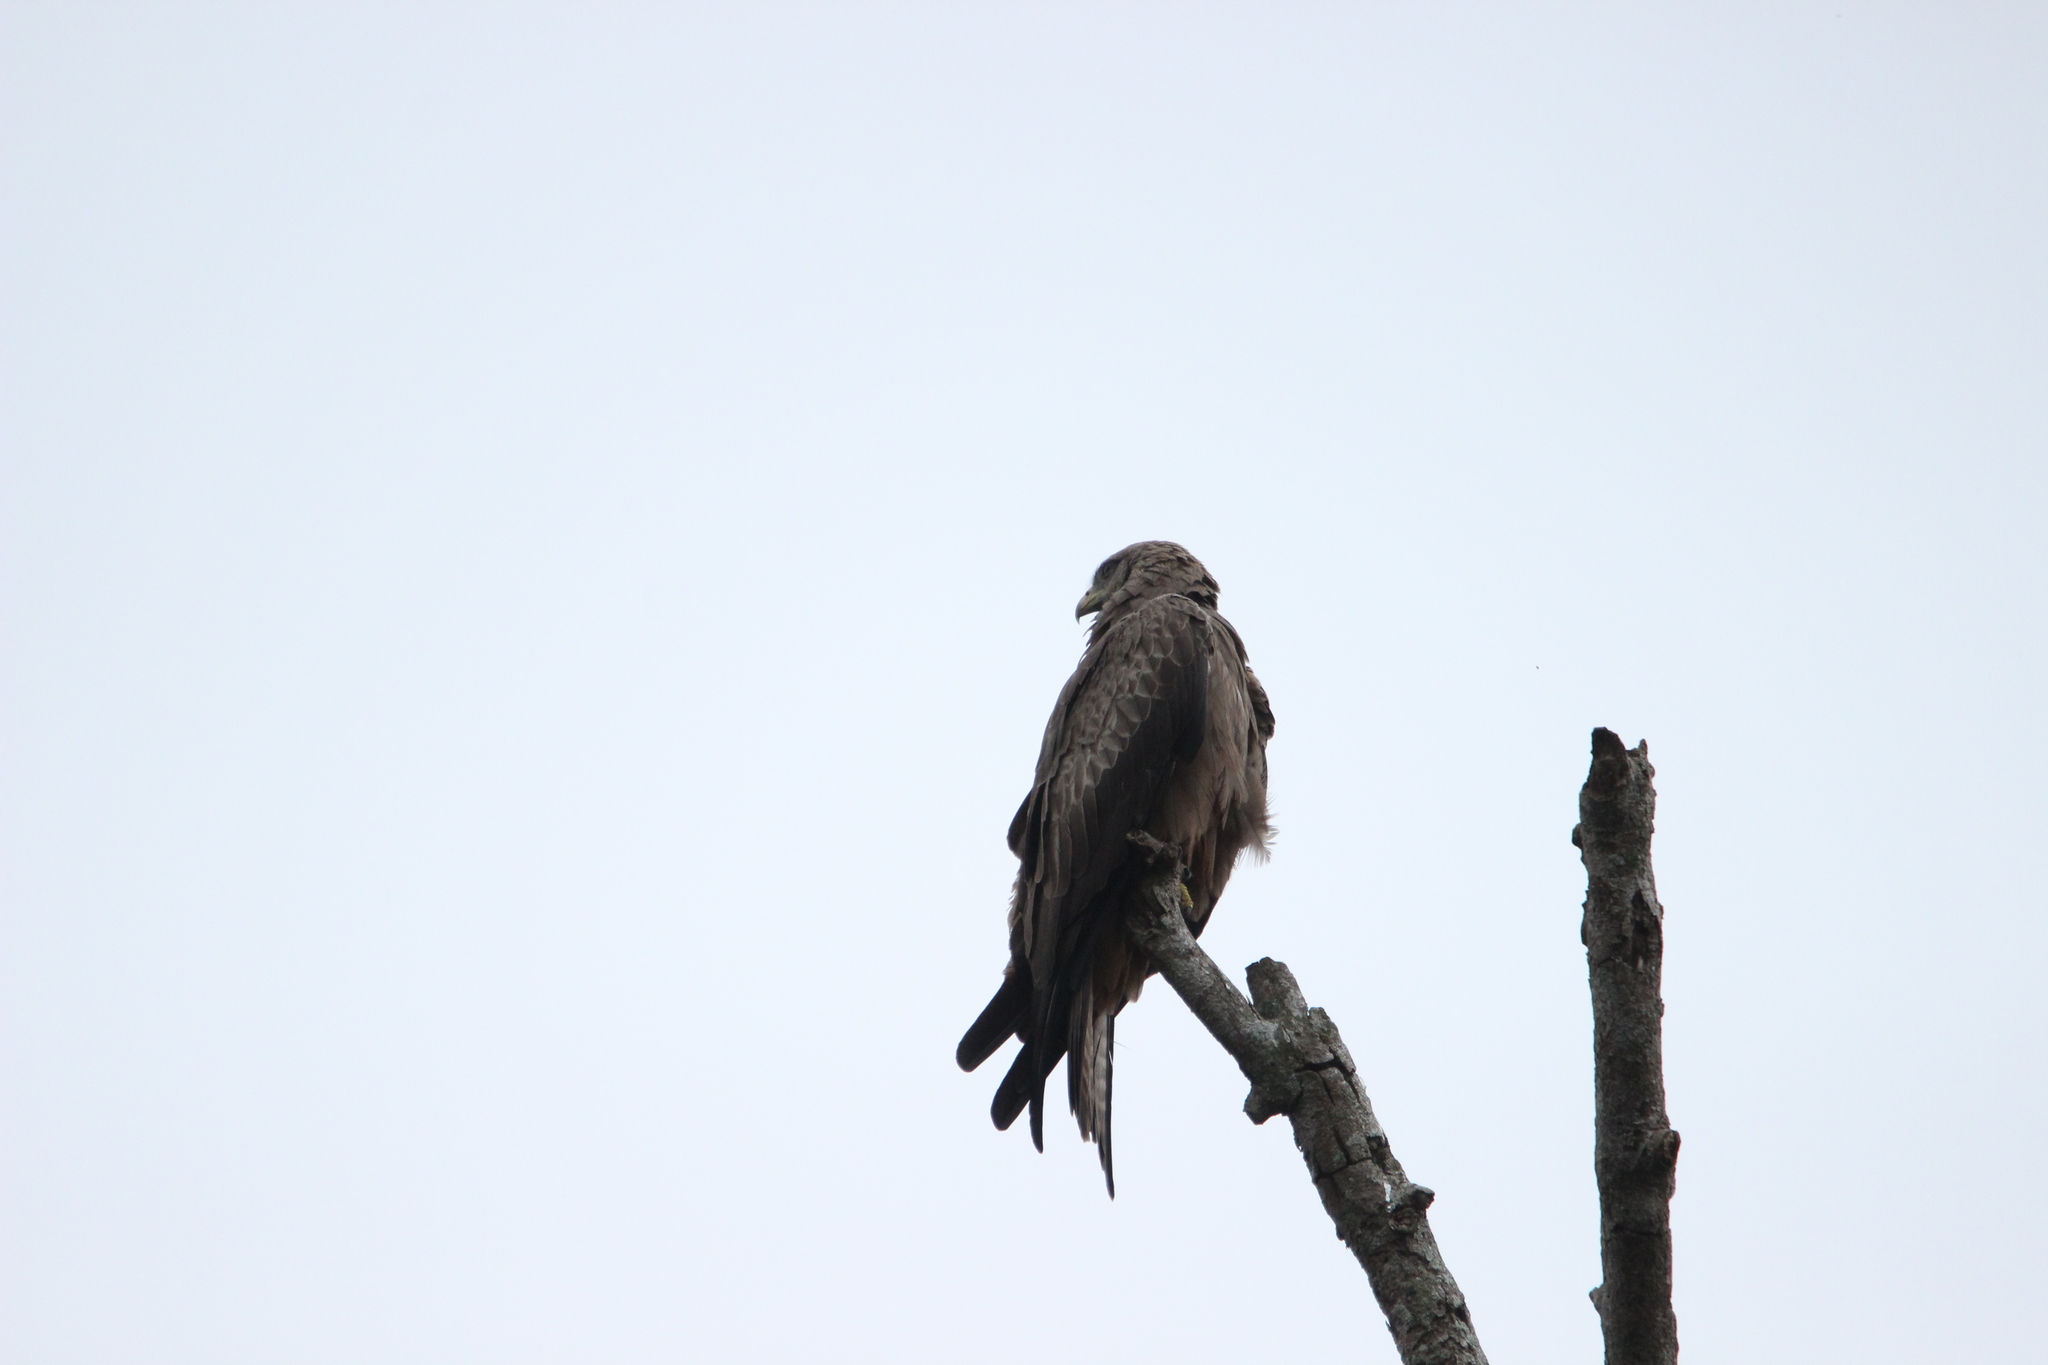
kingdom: Animalia
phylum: Chordata
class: Aves
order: Accipitriformes
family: Accipitridae
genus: Milvus
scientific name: Milvus migrans
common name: Black kite
